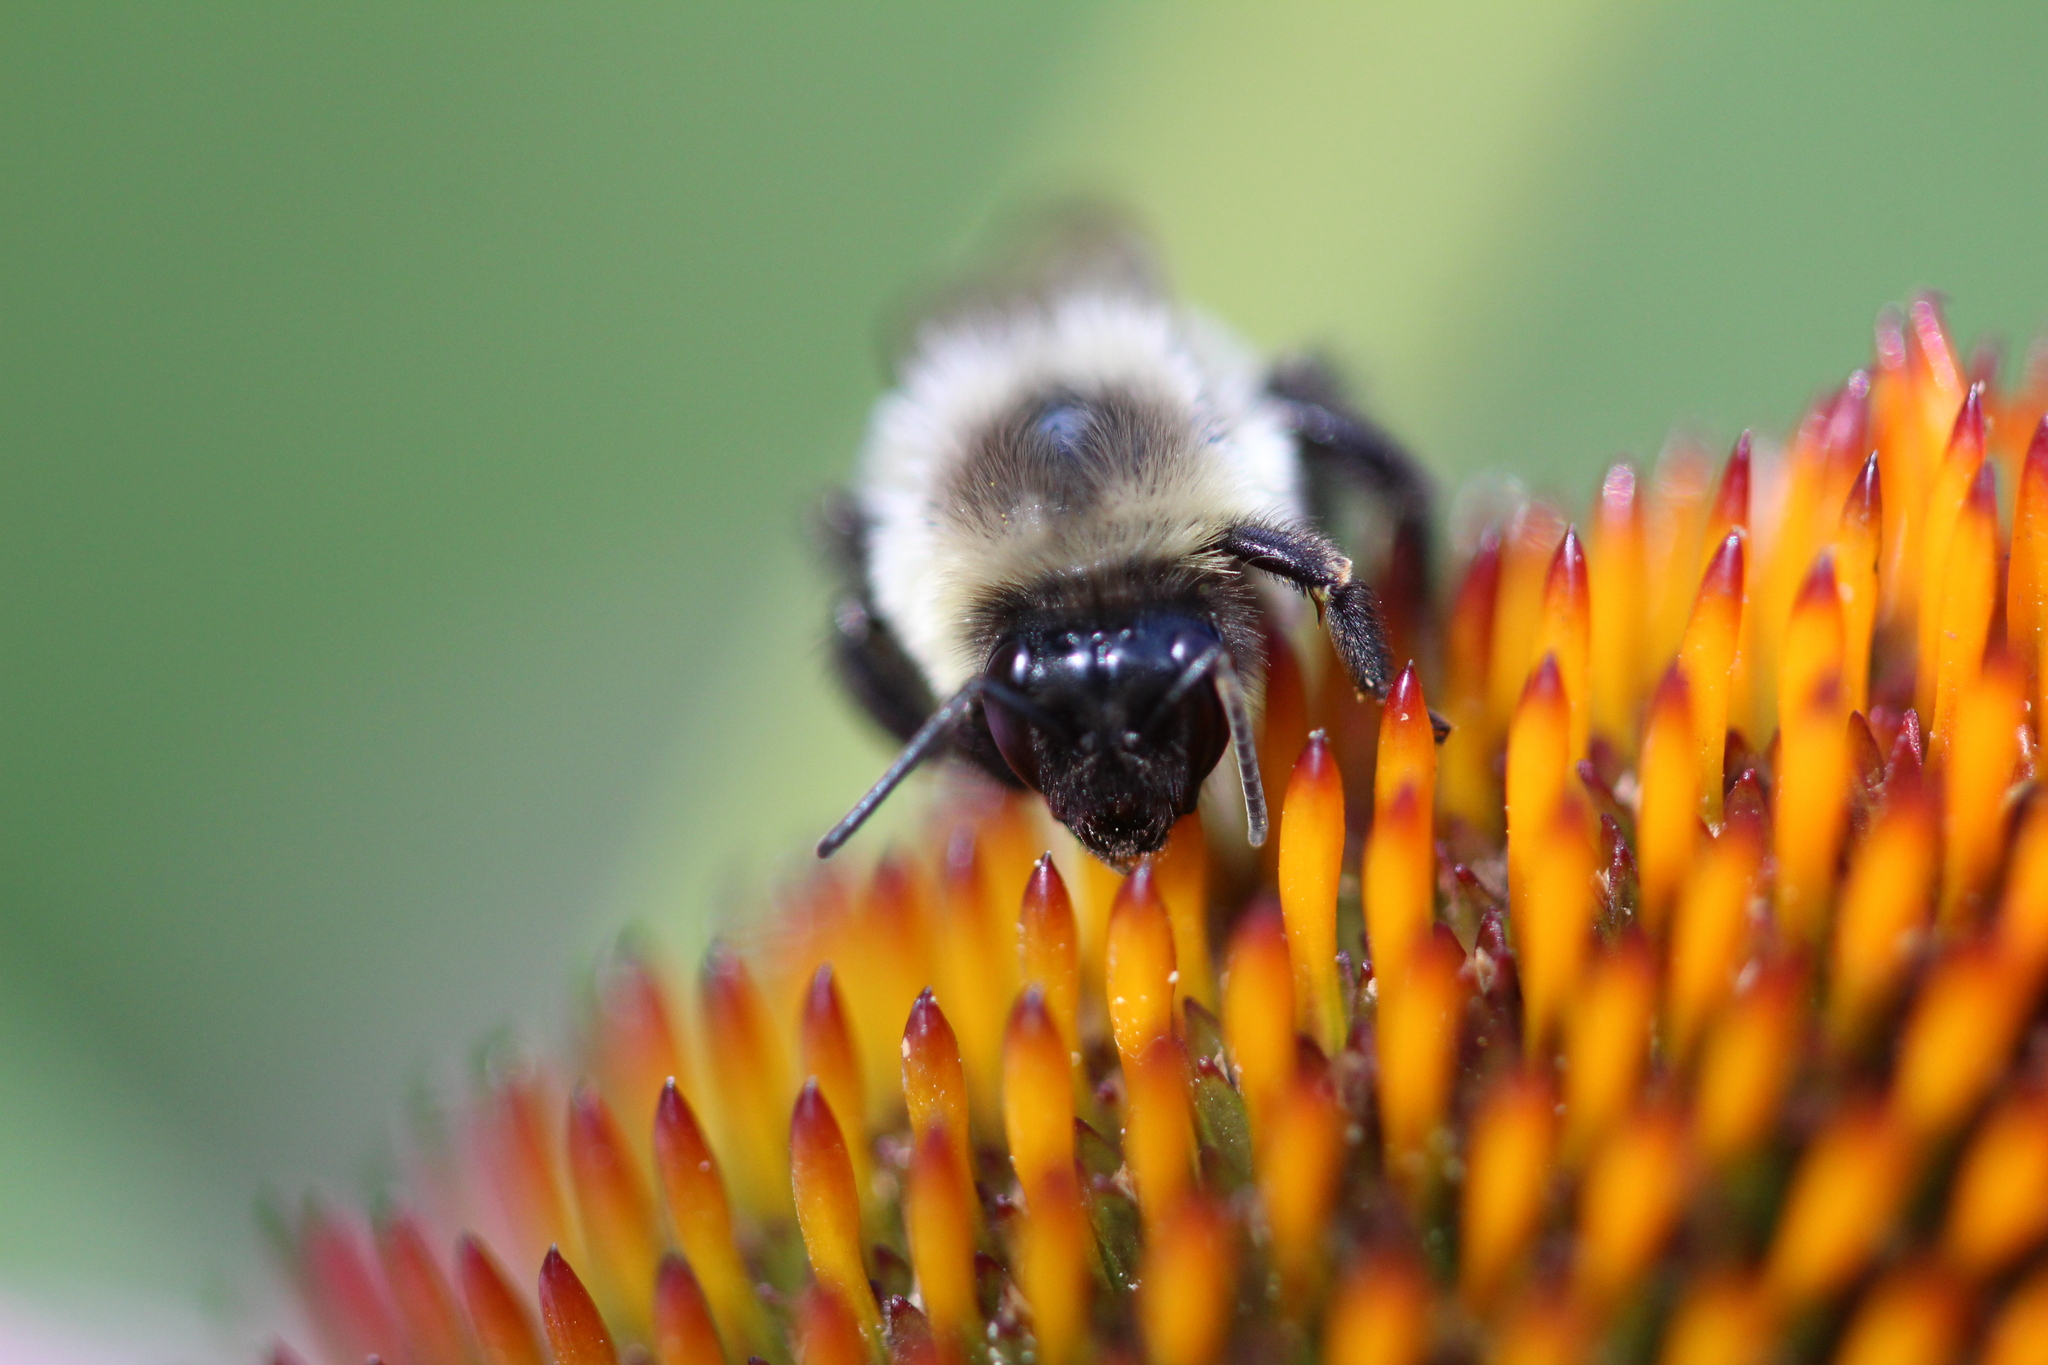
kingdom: Animalia
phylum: Arthropoda
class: Insecta
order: Hymenoptera
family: Apidae
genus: Bombus
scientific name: Bombus impatiens
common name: Common eastern bumble bee
